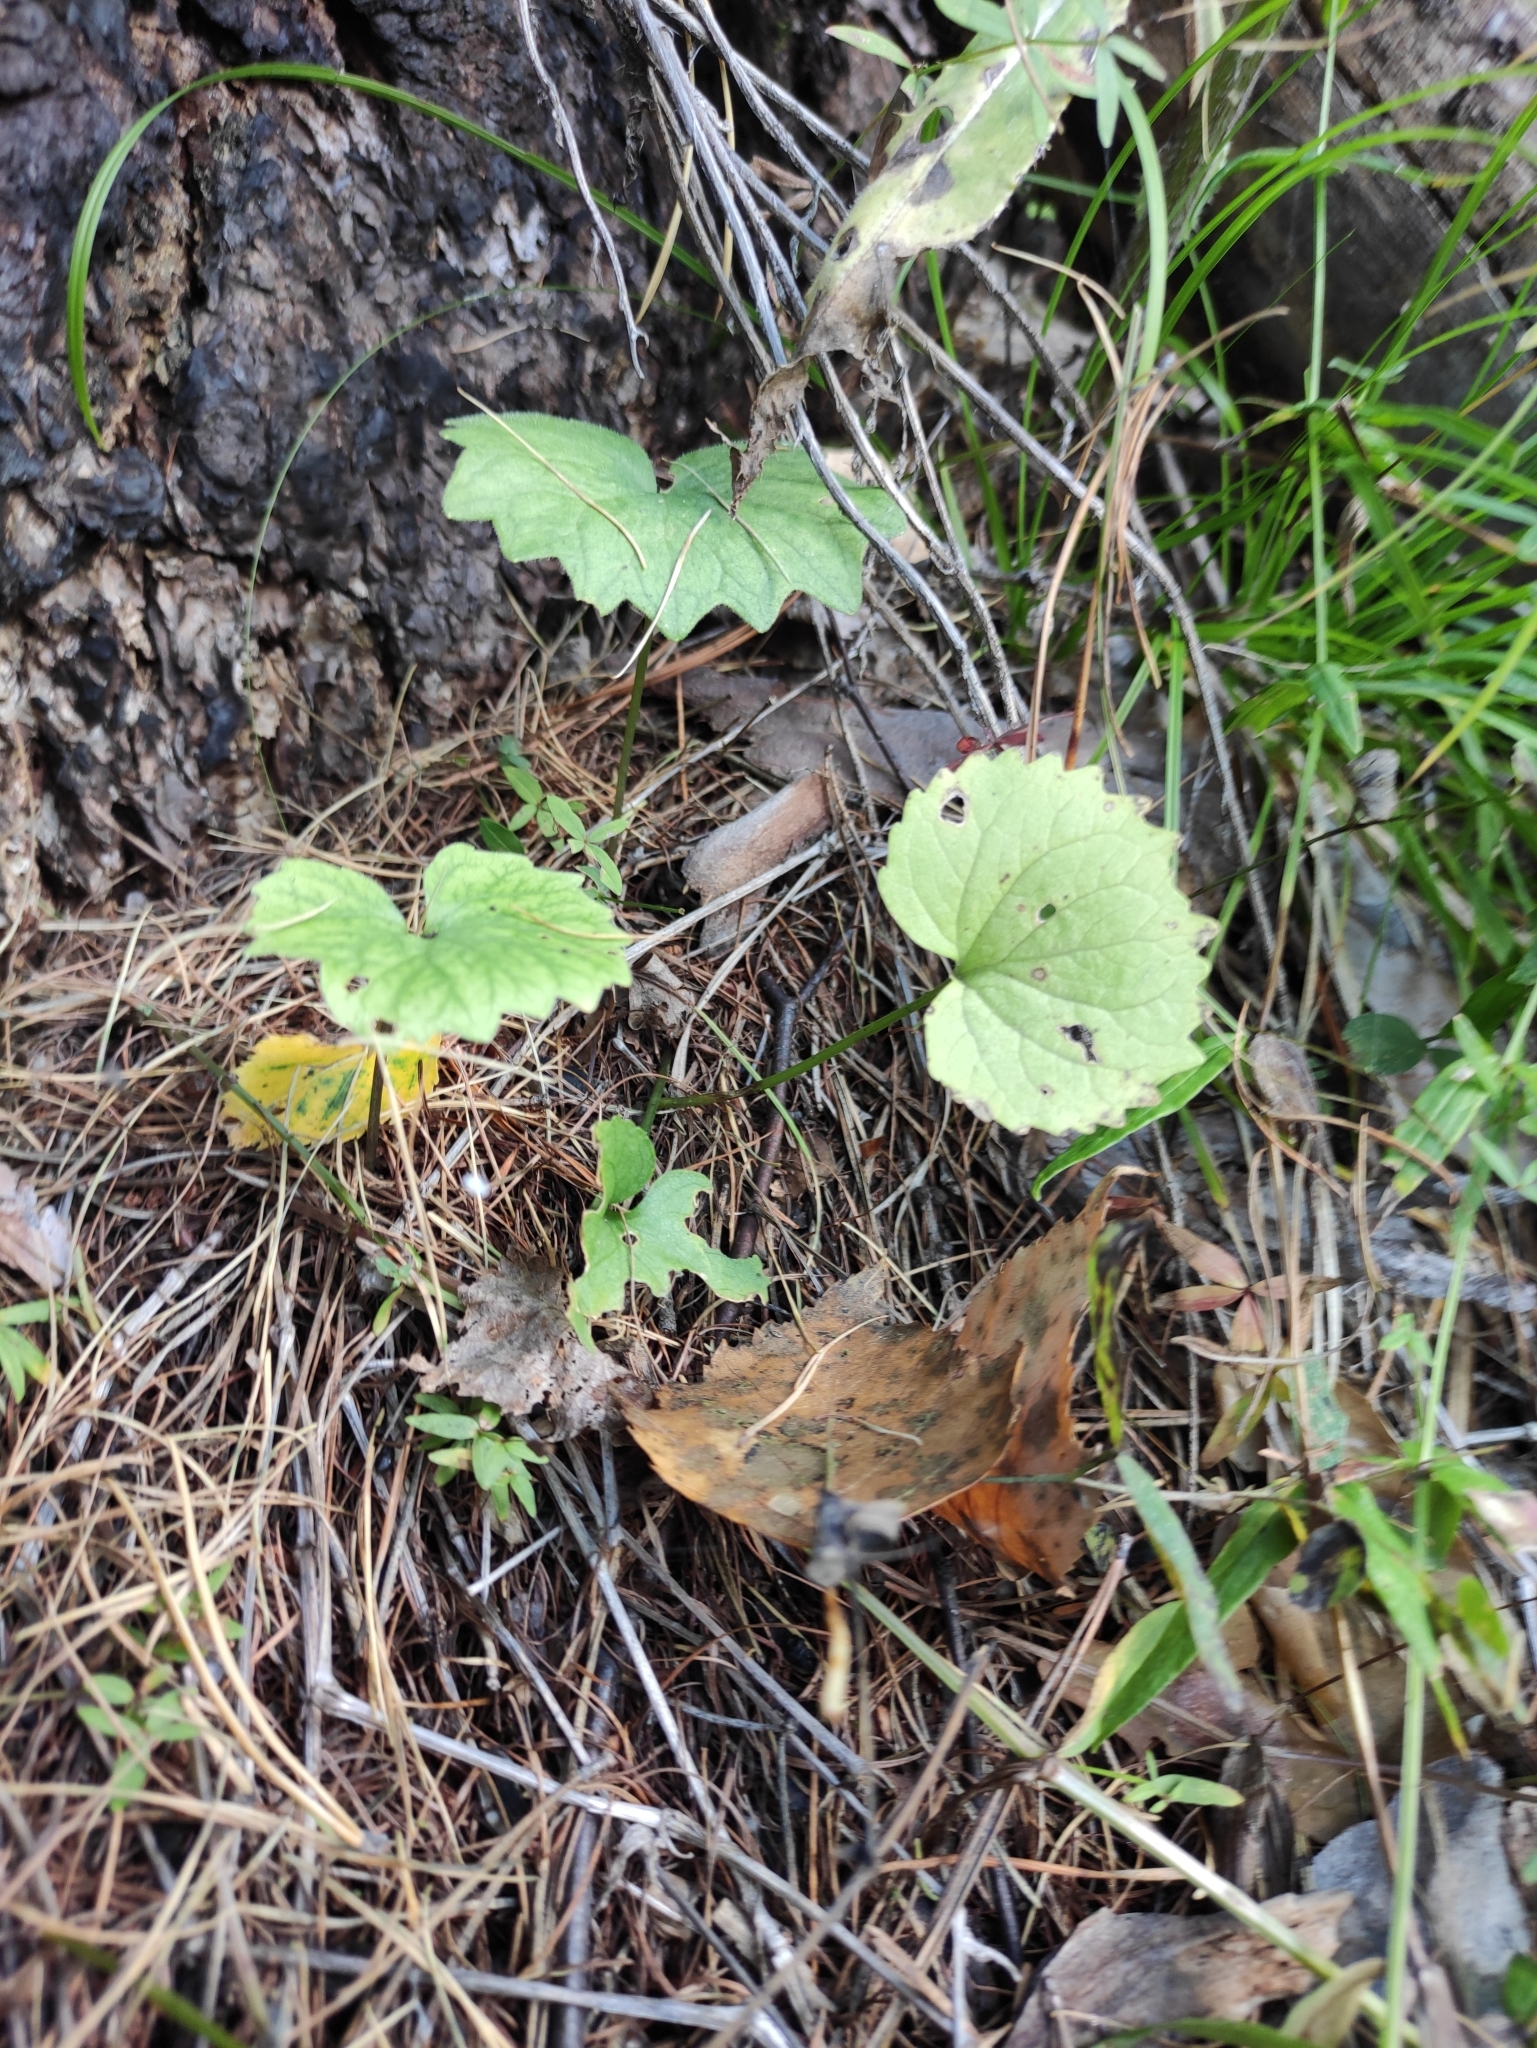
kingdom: Plantae
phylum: Tracheophyta
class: Magnoliopsida
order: Malpighiales
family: Violaceae
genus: Viola
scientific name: Viola uniflora
